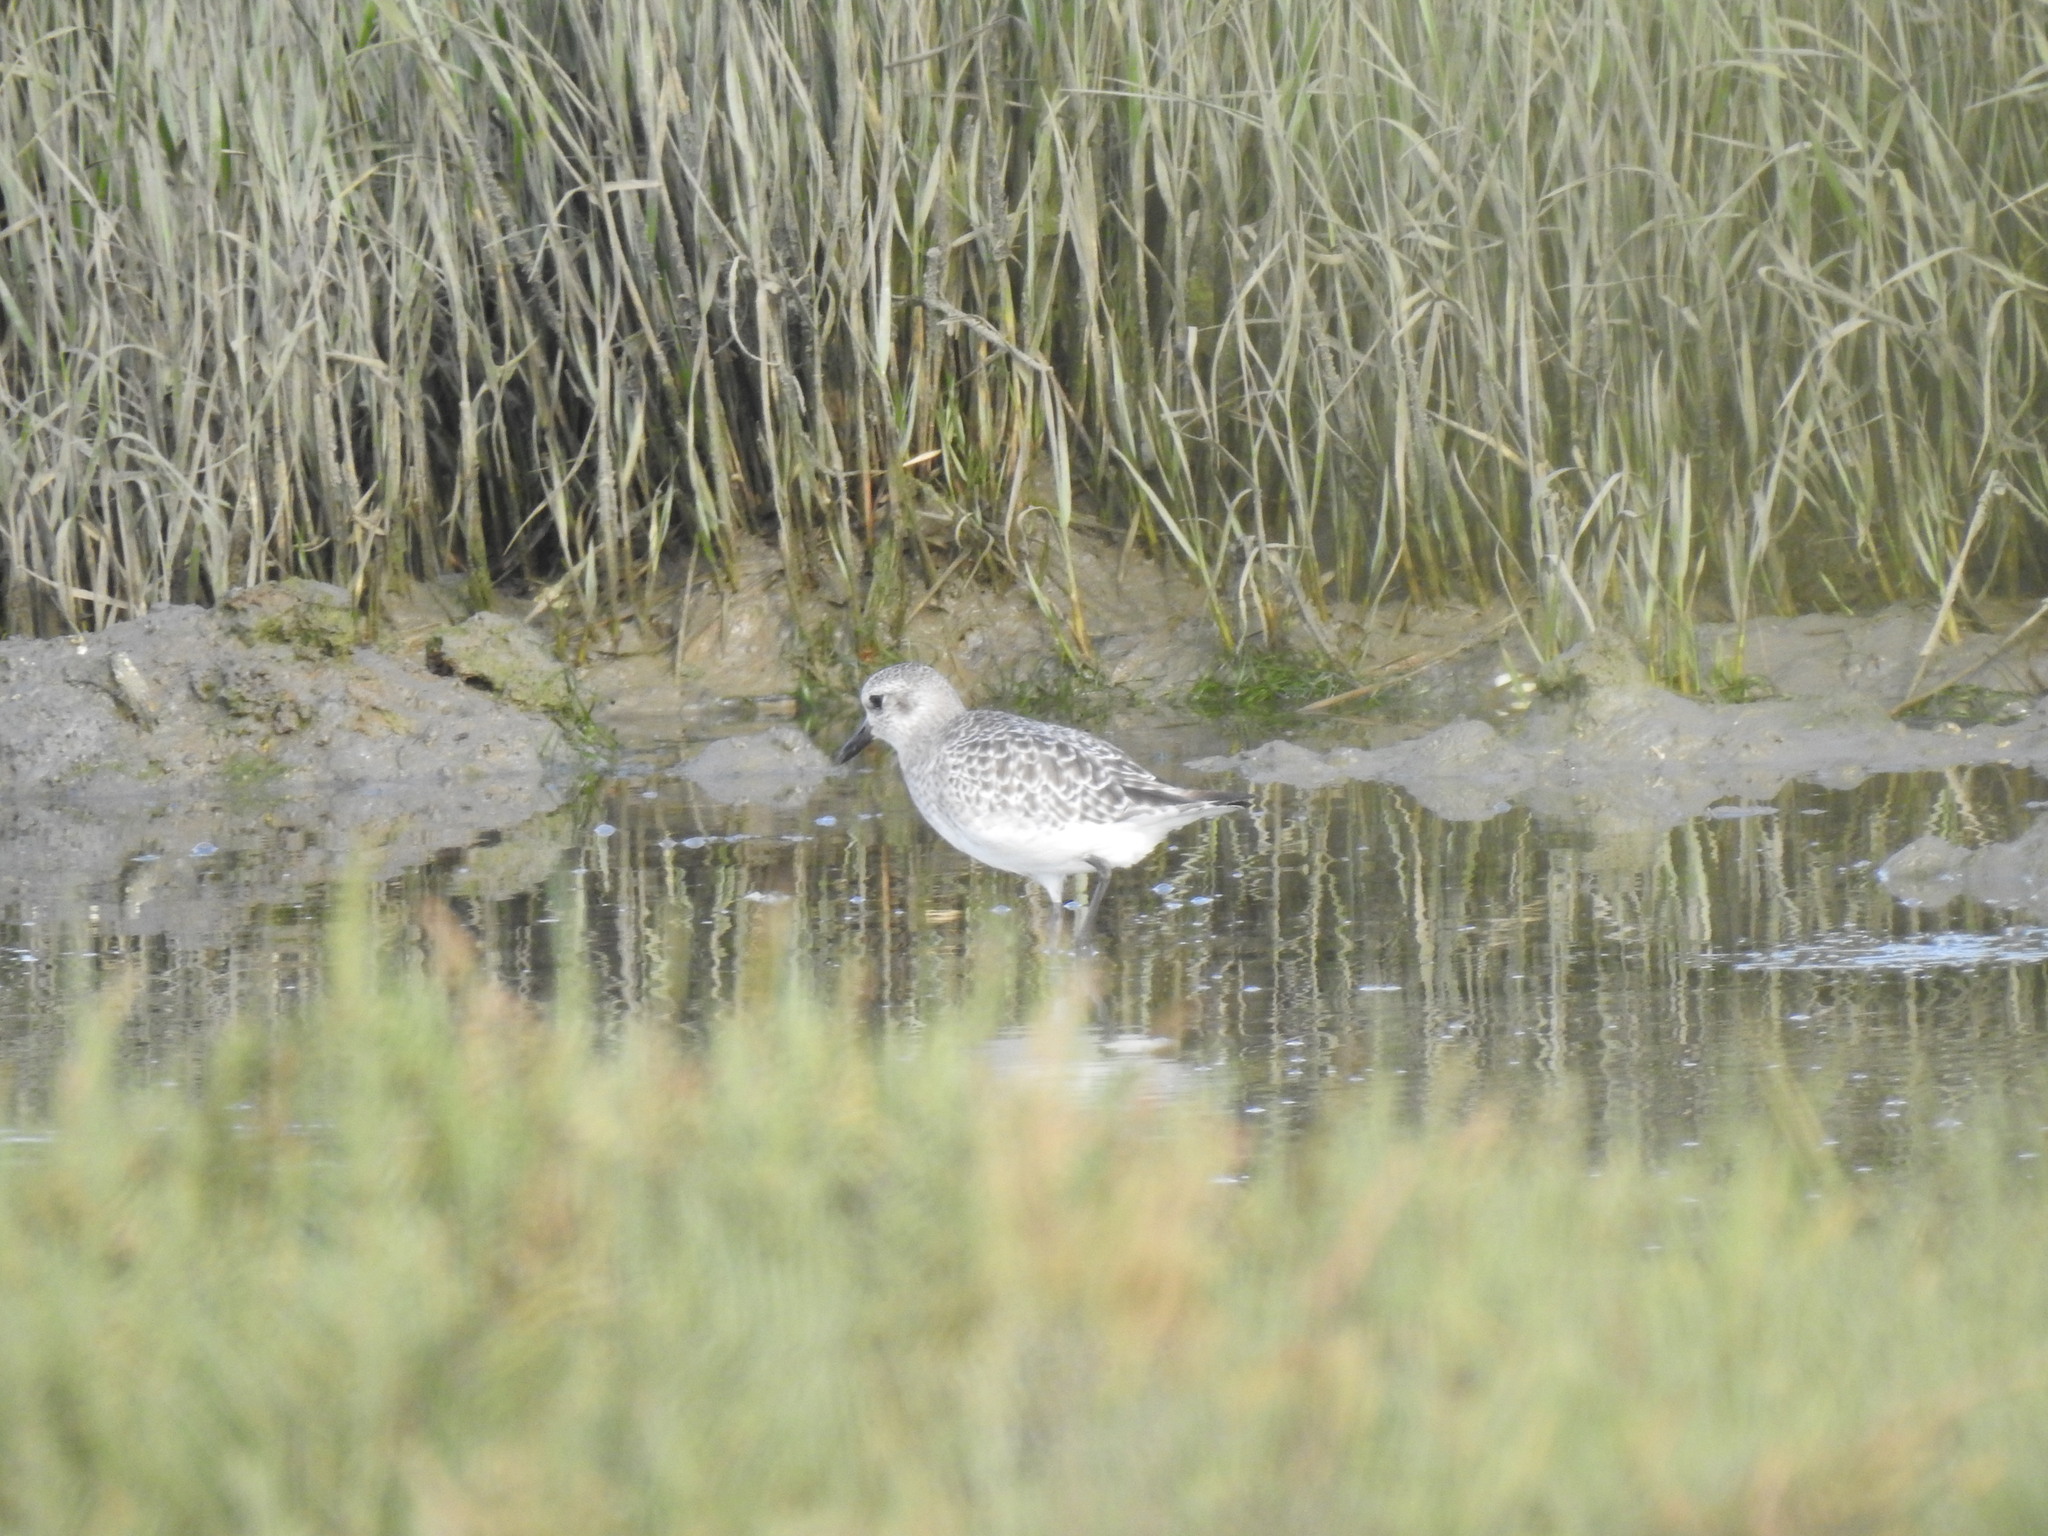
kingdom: Animalia
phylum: Chordata
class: Aves
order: Charadriiformes
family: Charadriidae
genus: Pluvialis
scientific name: Pluvialis squatarola
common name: Grey plover
